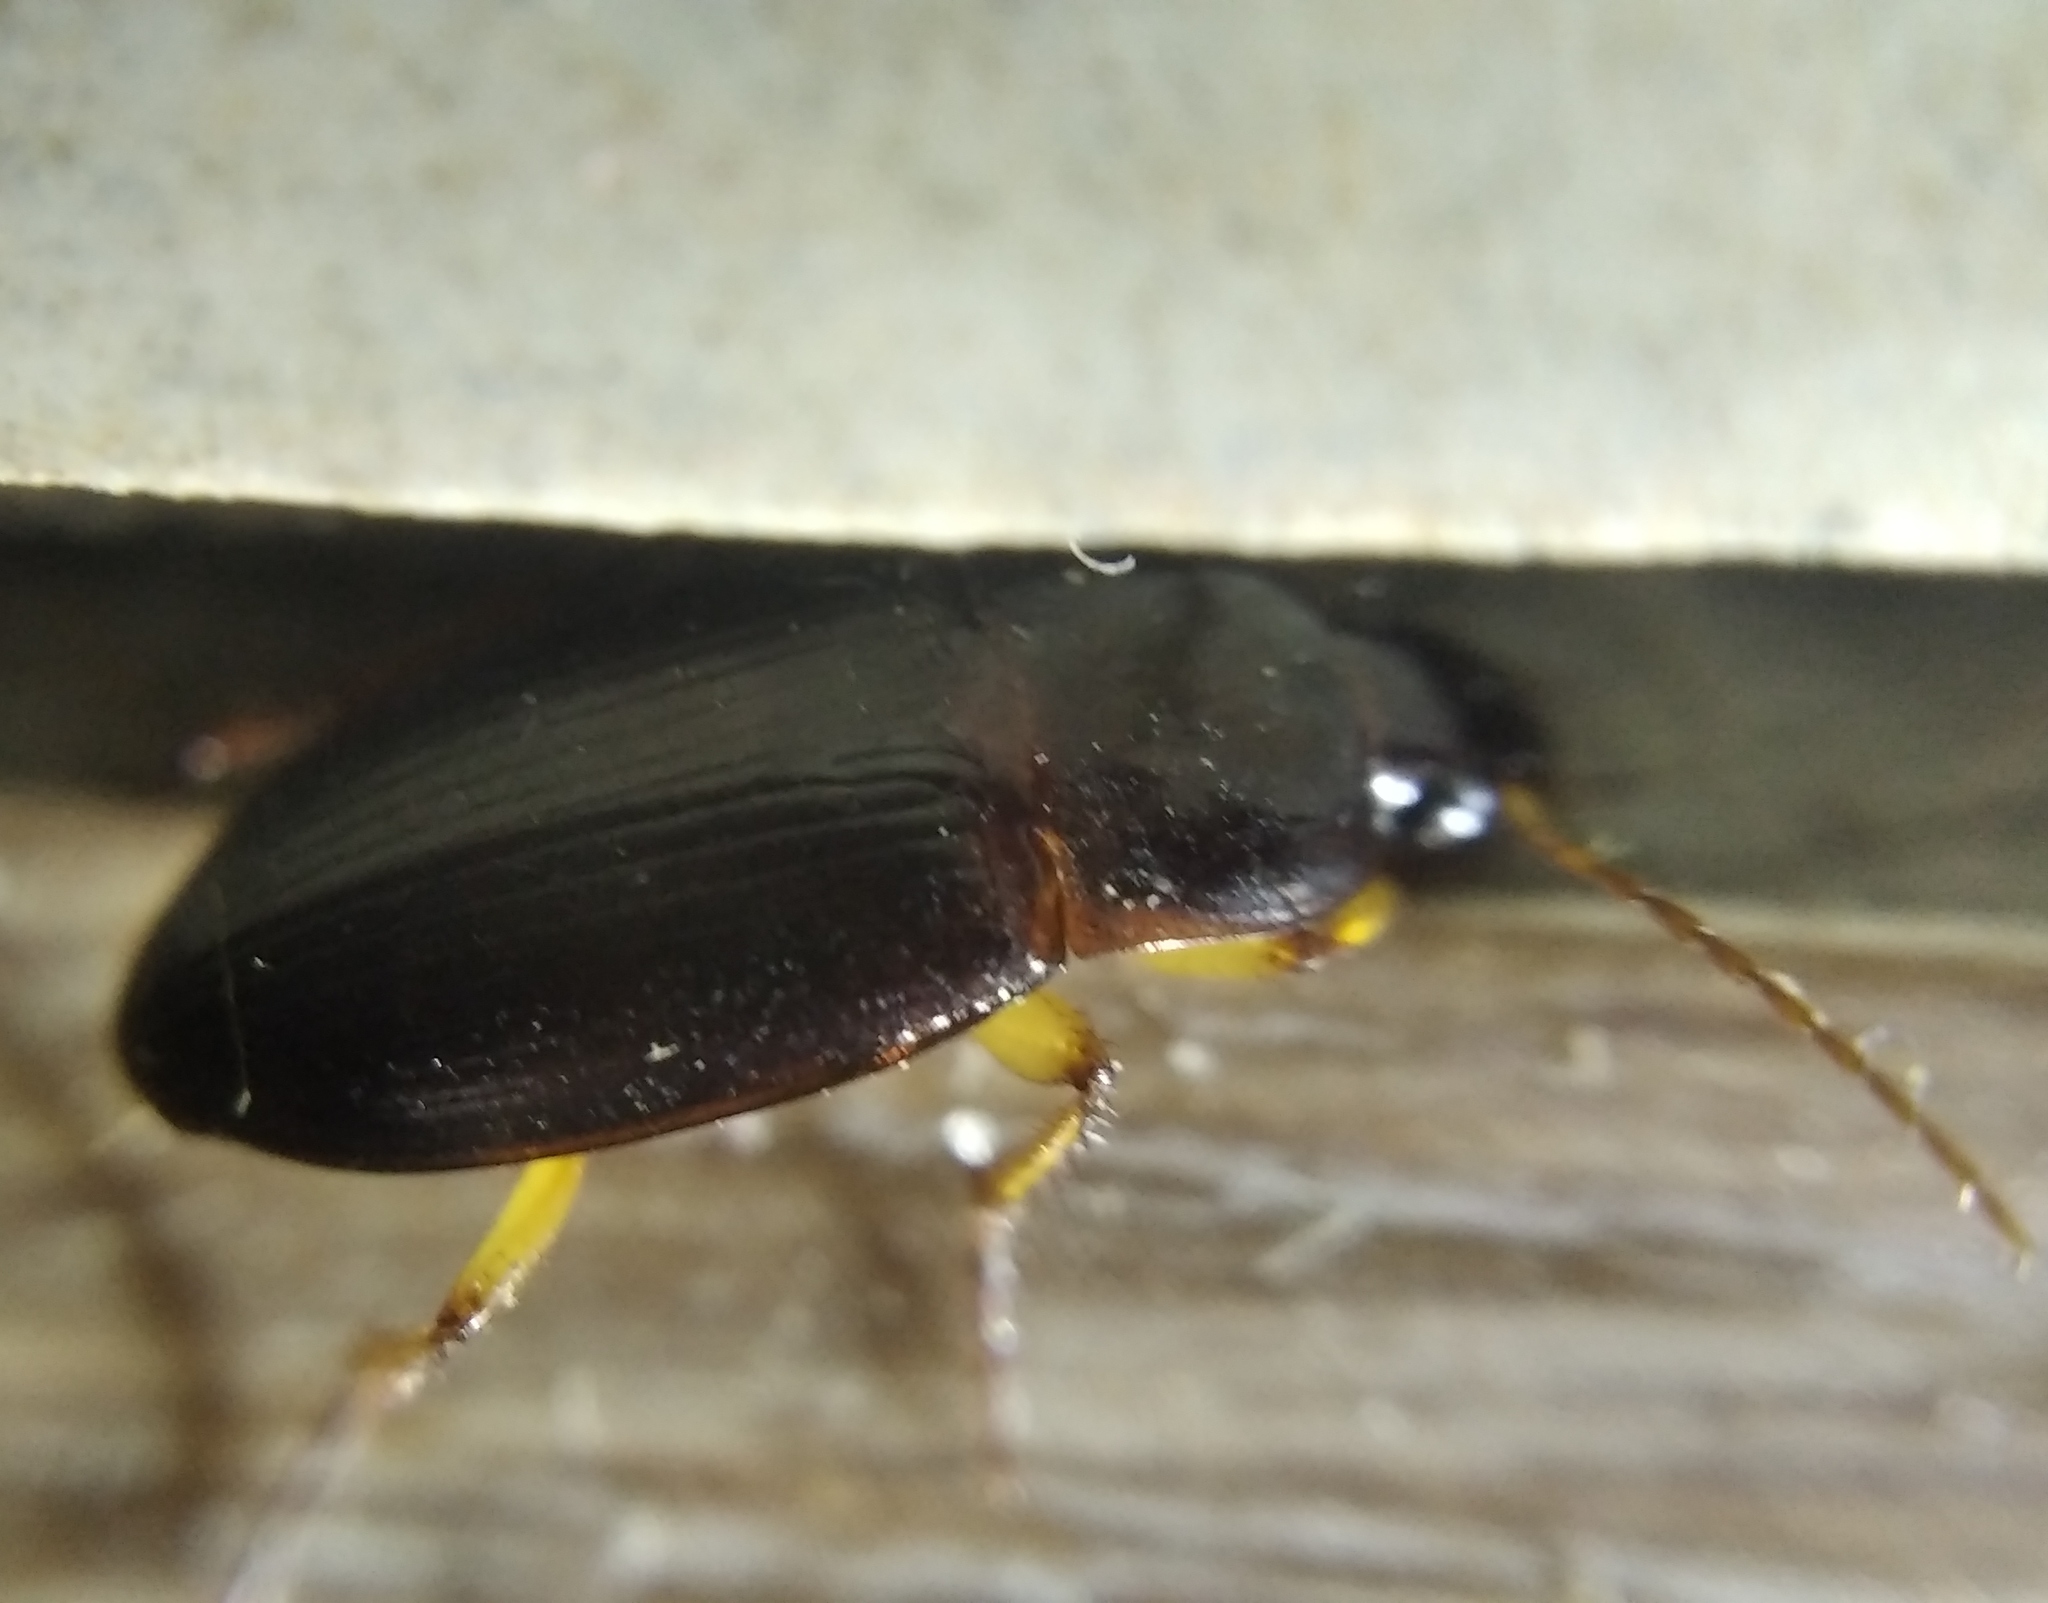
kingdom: Animalia
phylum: Arthropoda
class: Insecta
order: Coleoptera
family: Carabidae
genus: Calathus
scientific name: Calathus erratus
